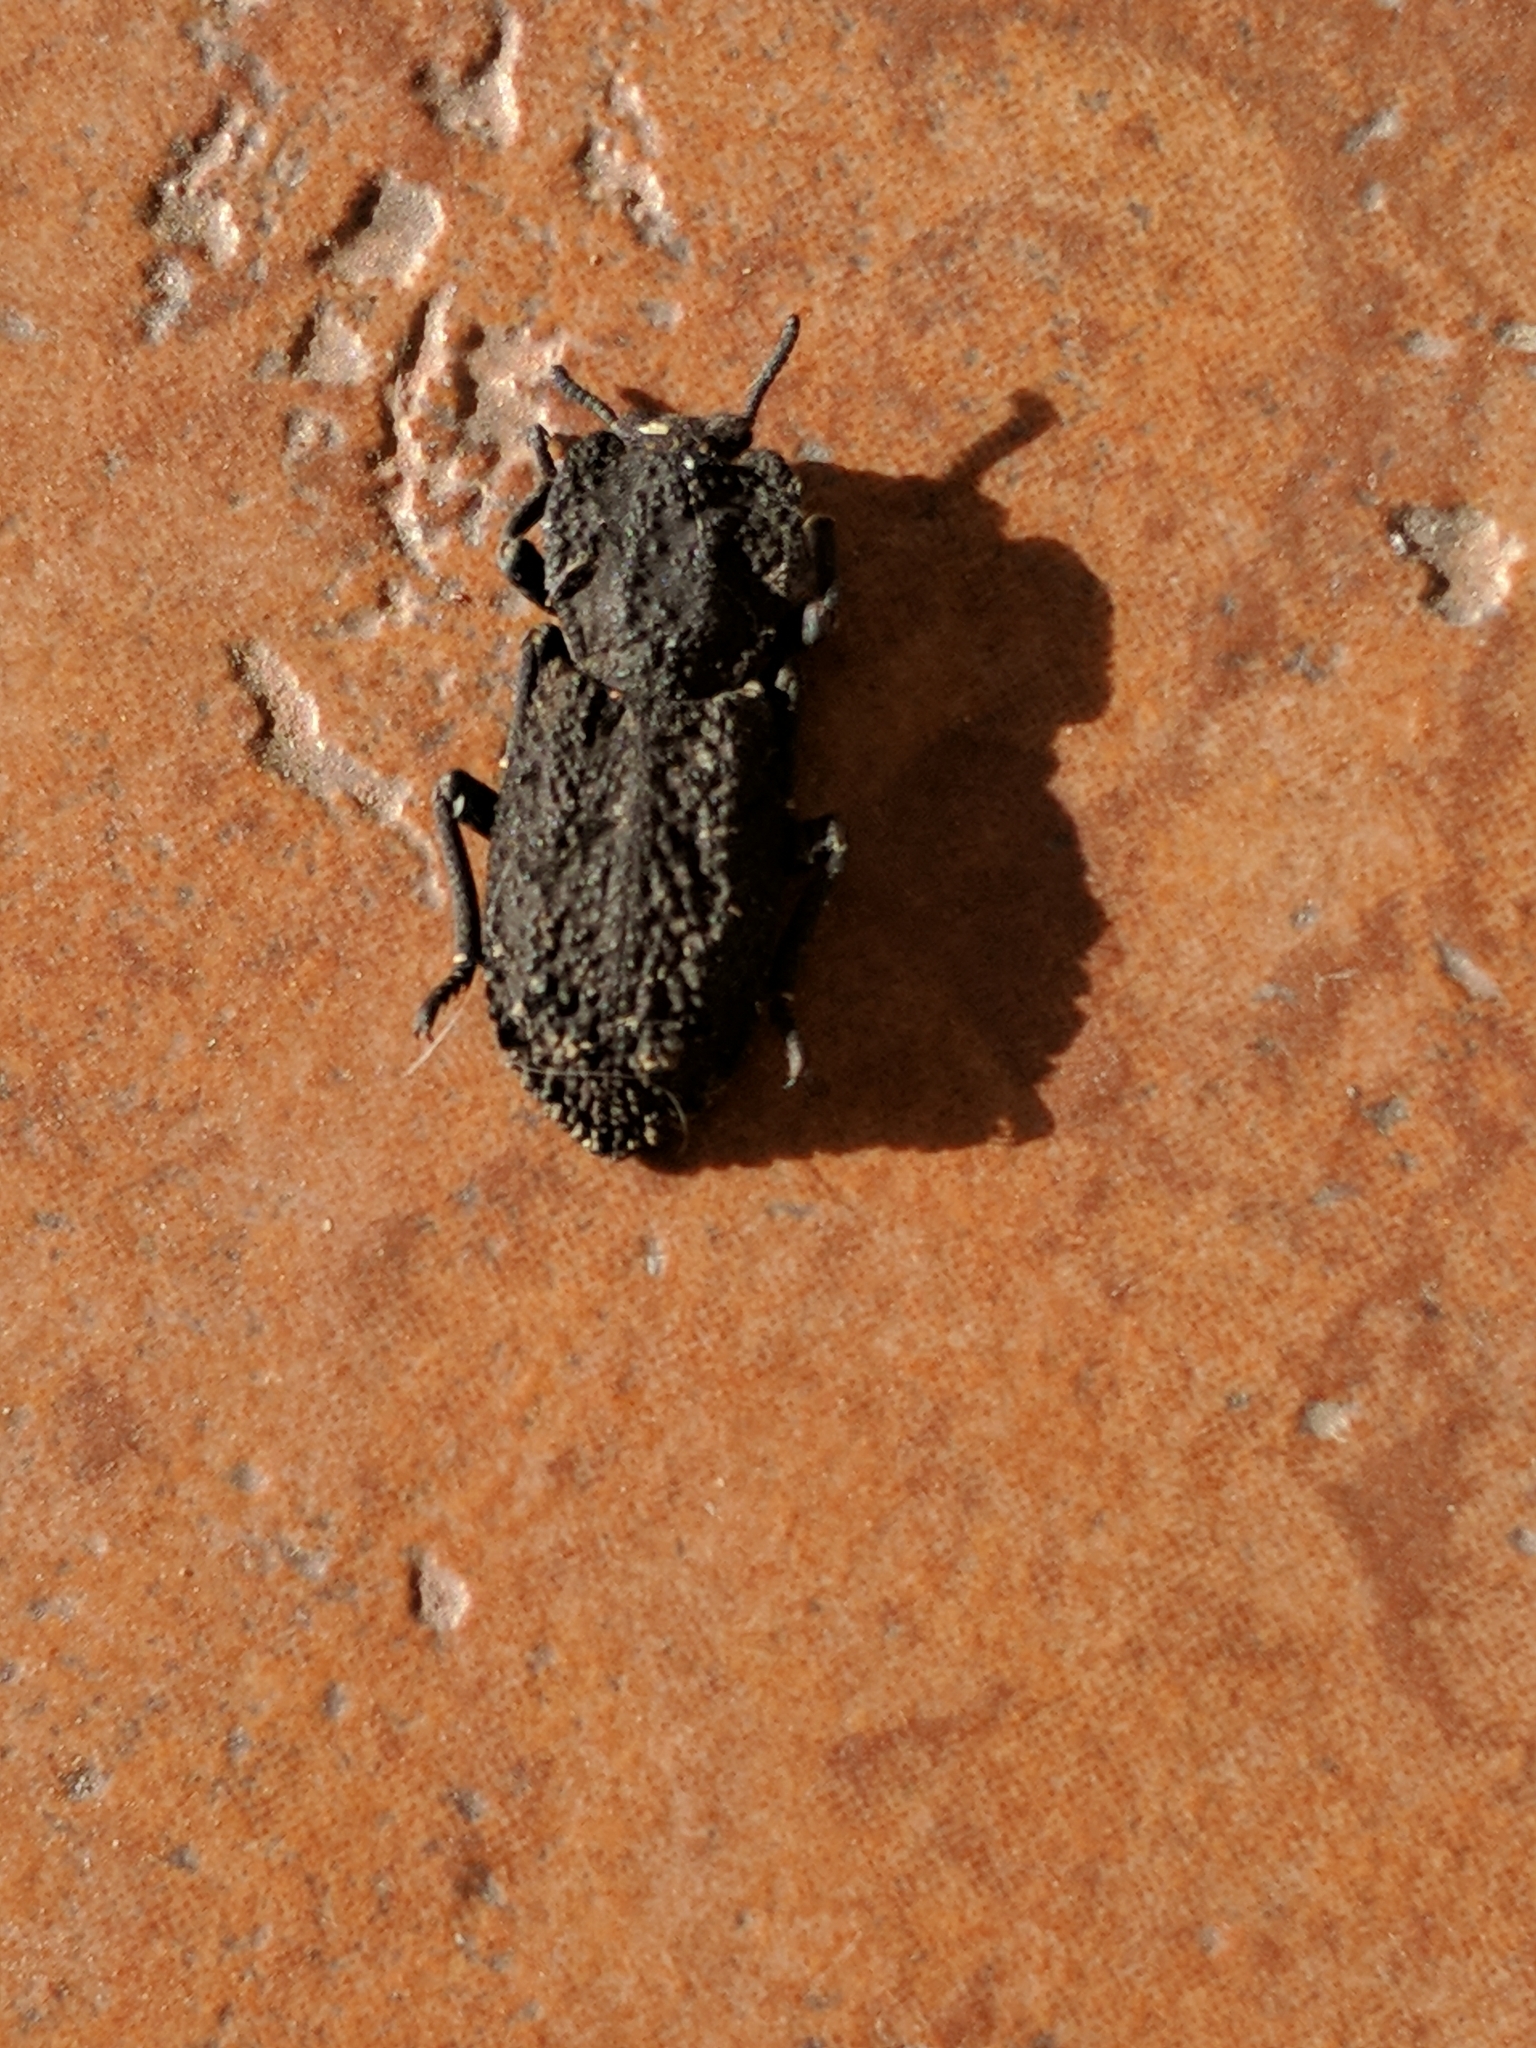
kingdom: Animalia
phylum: Arthropoda
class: Insecta
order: Coleoptera
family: Zopheridae
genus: Phloeodes
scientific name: Phloeodes diabolicus
